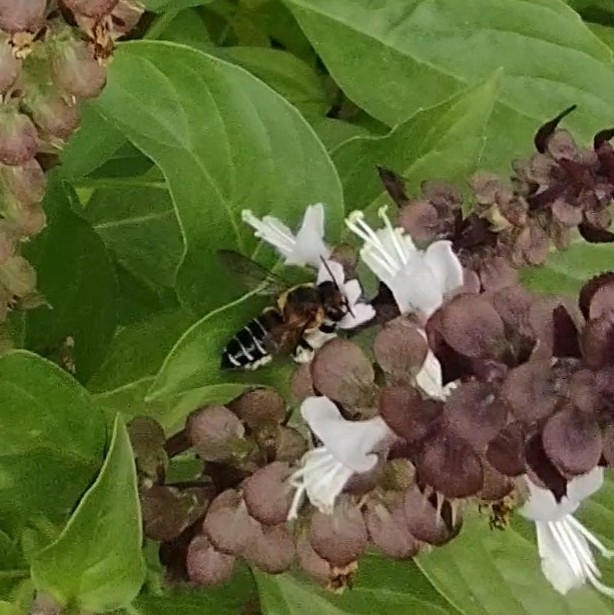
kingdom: Animalia
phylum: Arthropoda
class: Insecta
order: Hymenoptera
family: Megachilidae
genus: Megachile
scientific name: Megachile
